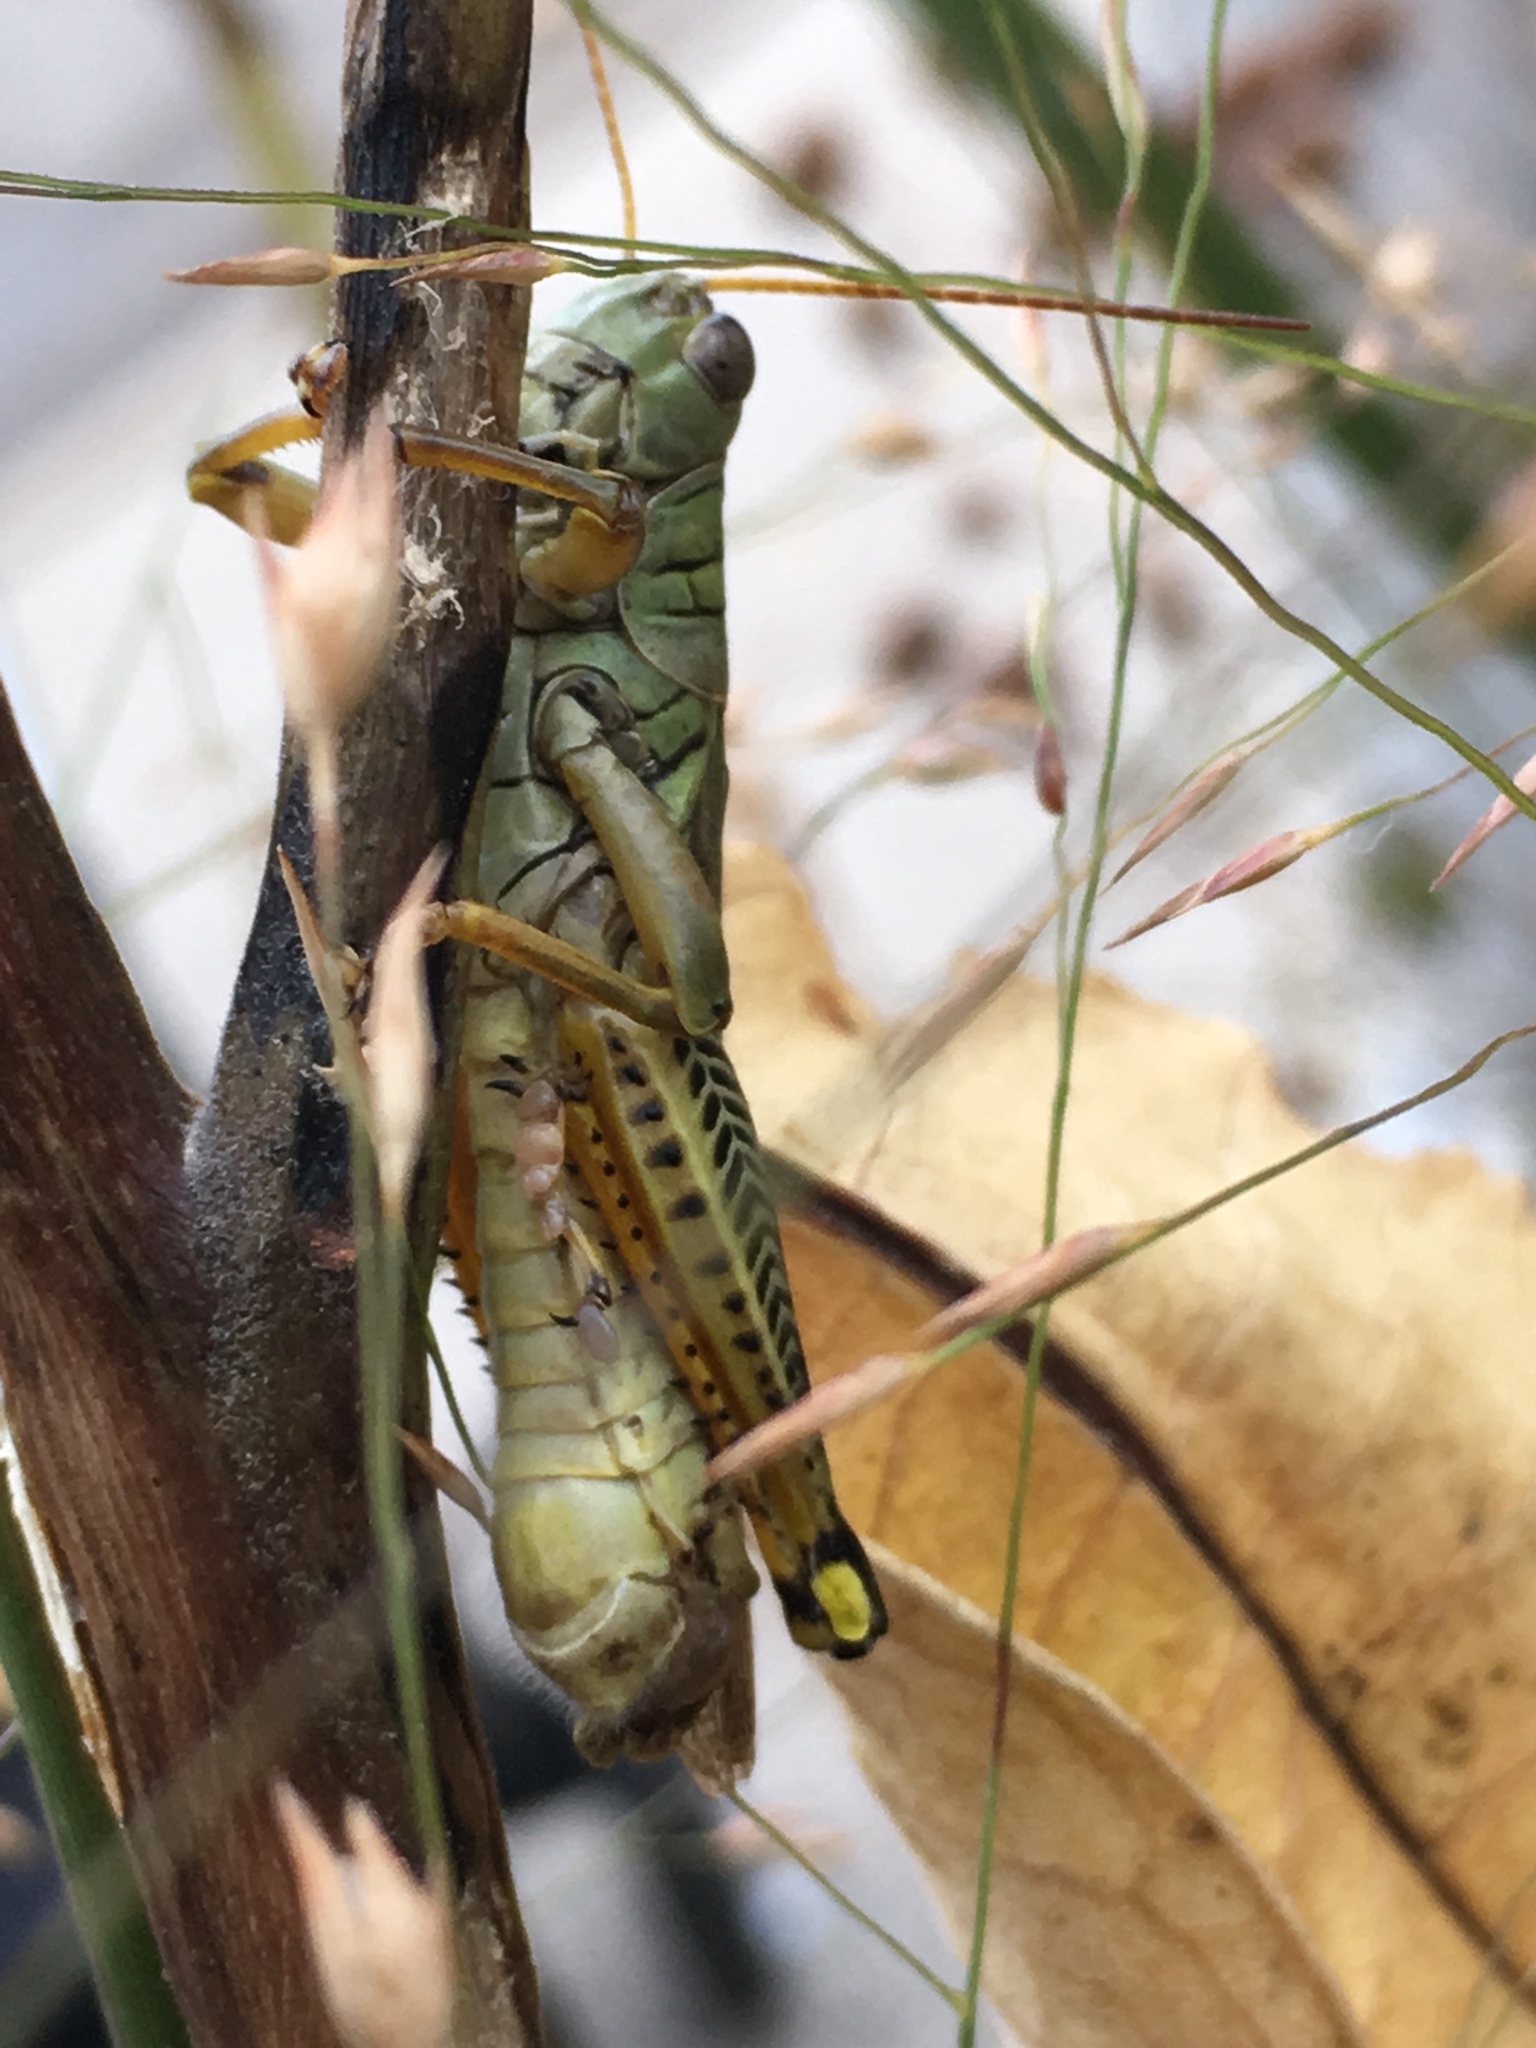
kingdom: Animalia
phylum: Arthropoda
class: Insecta
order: Orthoptera
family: Acrididae
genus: Melanoplus
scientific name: Melanoplus differentialis
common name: Differential grasshopper
